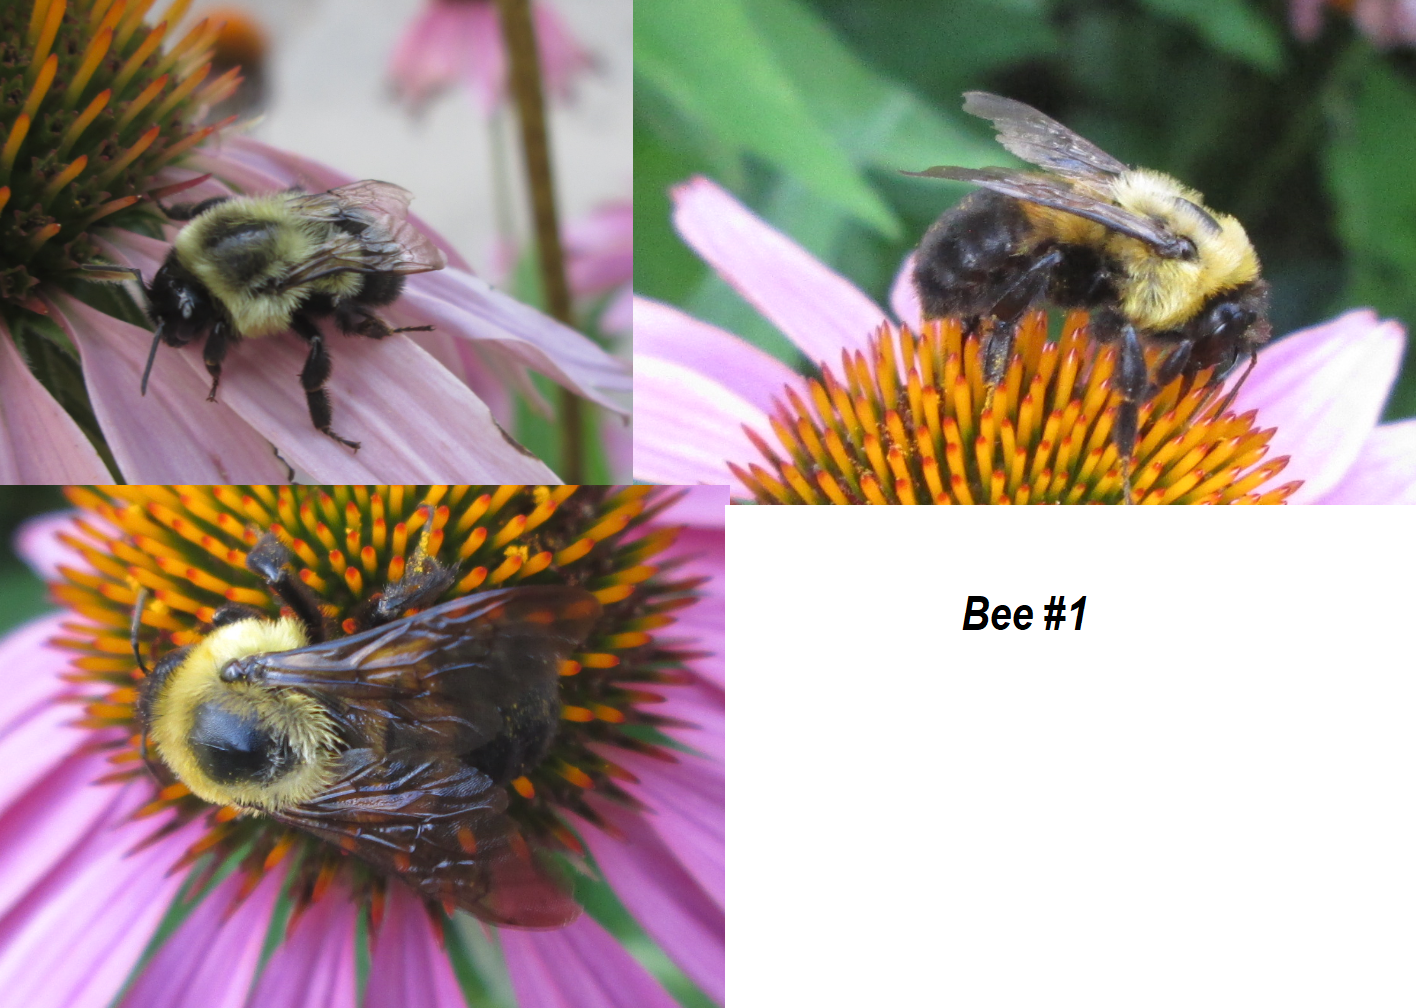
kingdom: Animalia
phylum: Arthropoda
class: Insecta
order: Hymenoptera
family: Apidae
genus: Bombus
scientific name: Bombus
